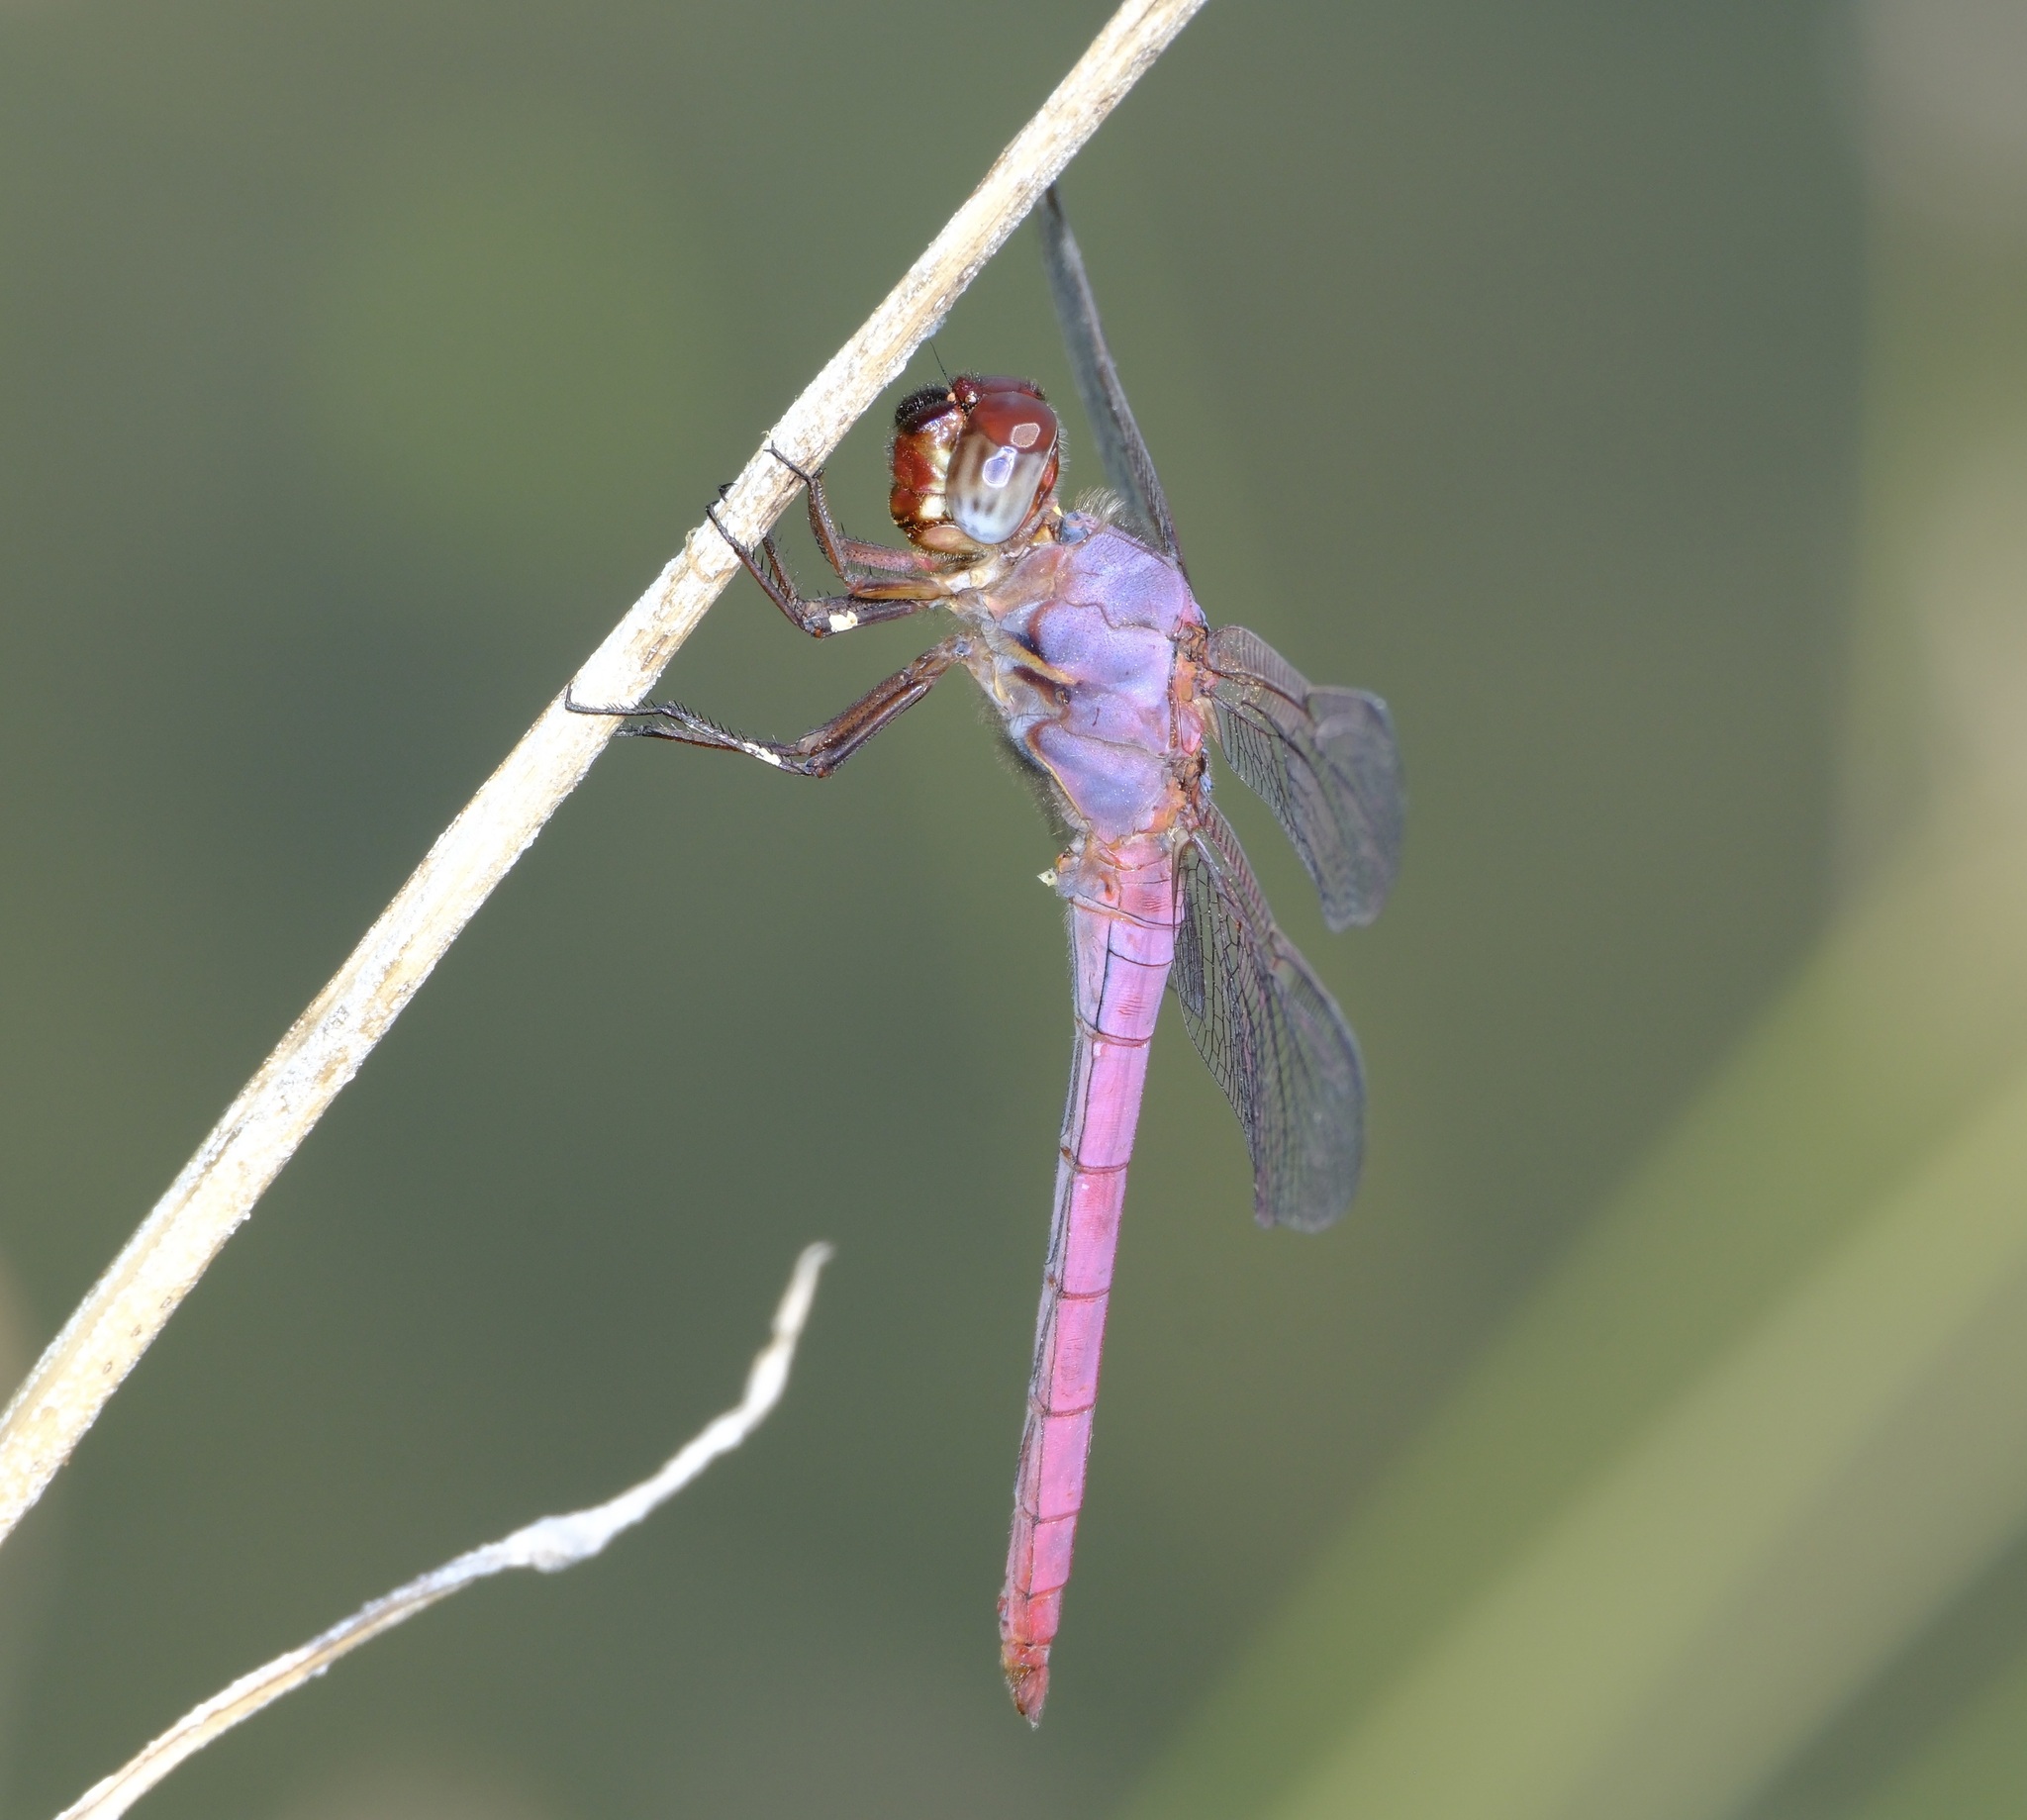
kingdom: Animalia
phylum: Arthropoda
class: Insecta
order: Odonata
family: Libellulidae
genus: Orthemis
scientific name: Orthemis ferruginea
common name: Roseate skimmer
